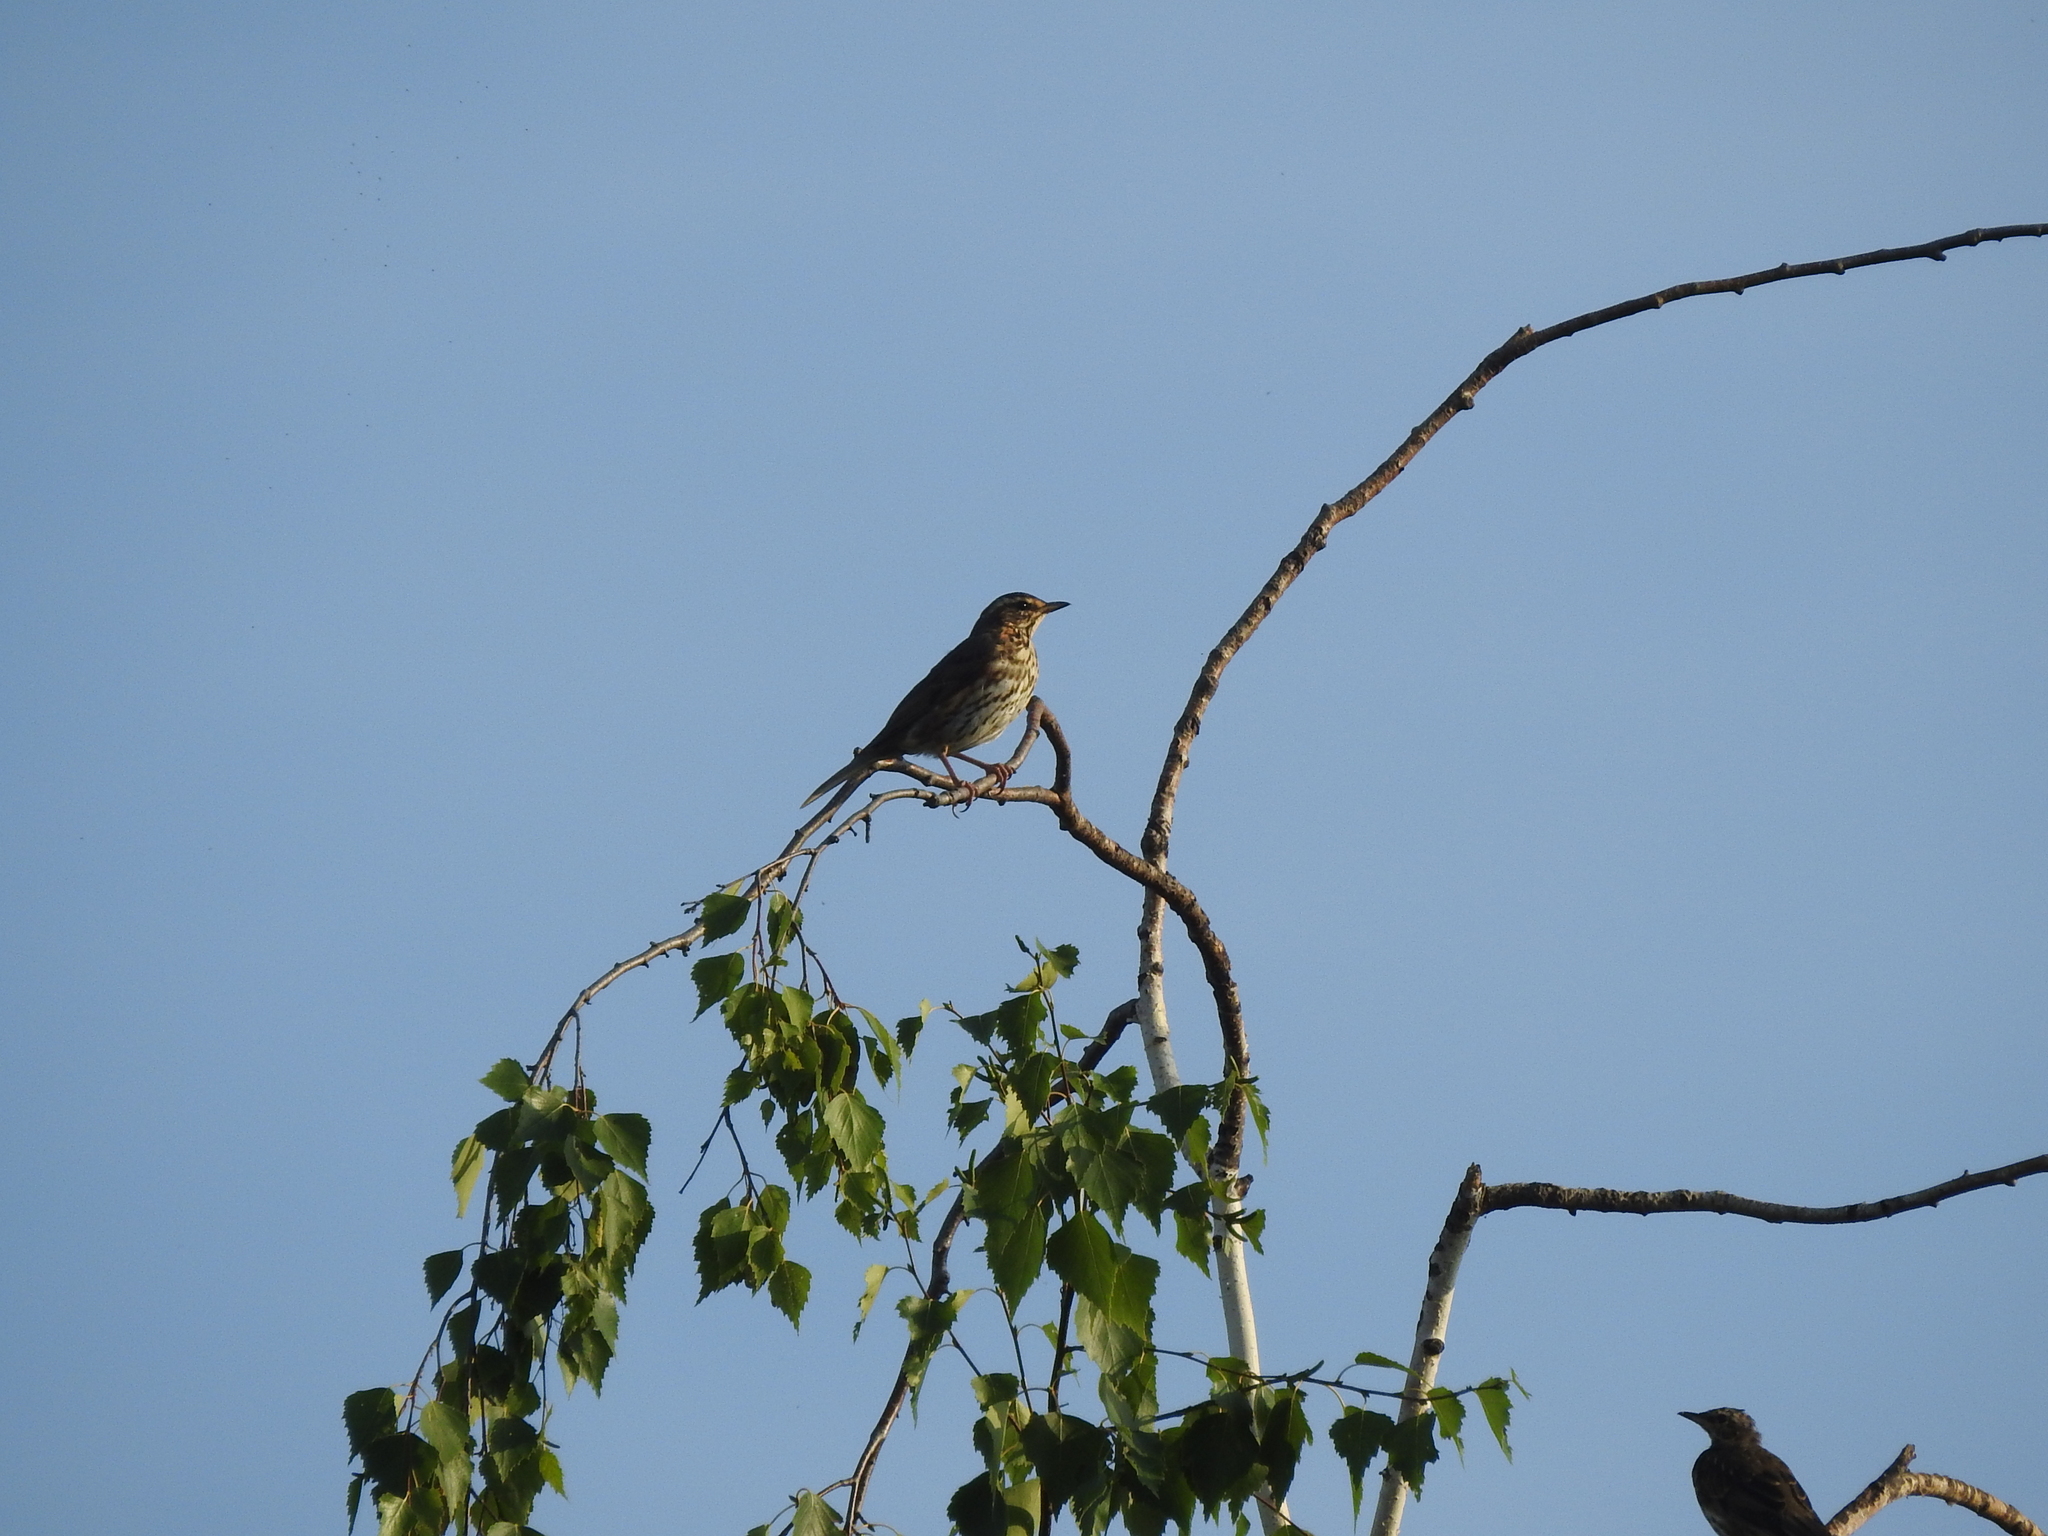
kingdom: Animalia
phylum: Chordata
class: Aves
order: Passeriformes
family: Turdidae
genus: Turdus
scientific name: Turdus iliacus
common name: Redwing
